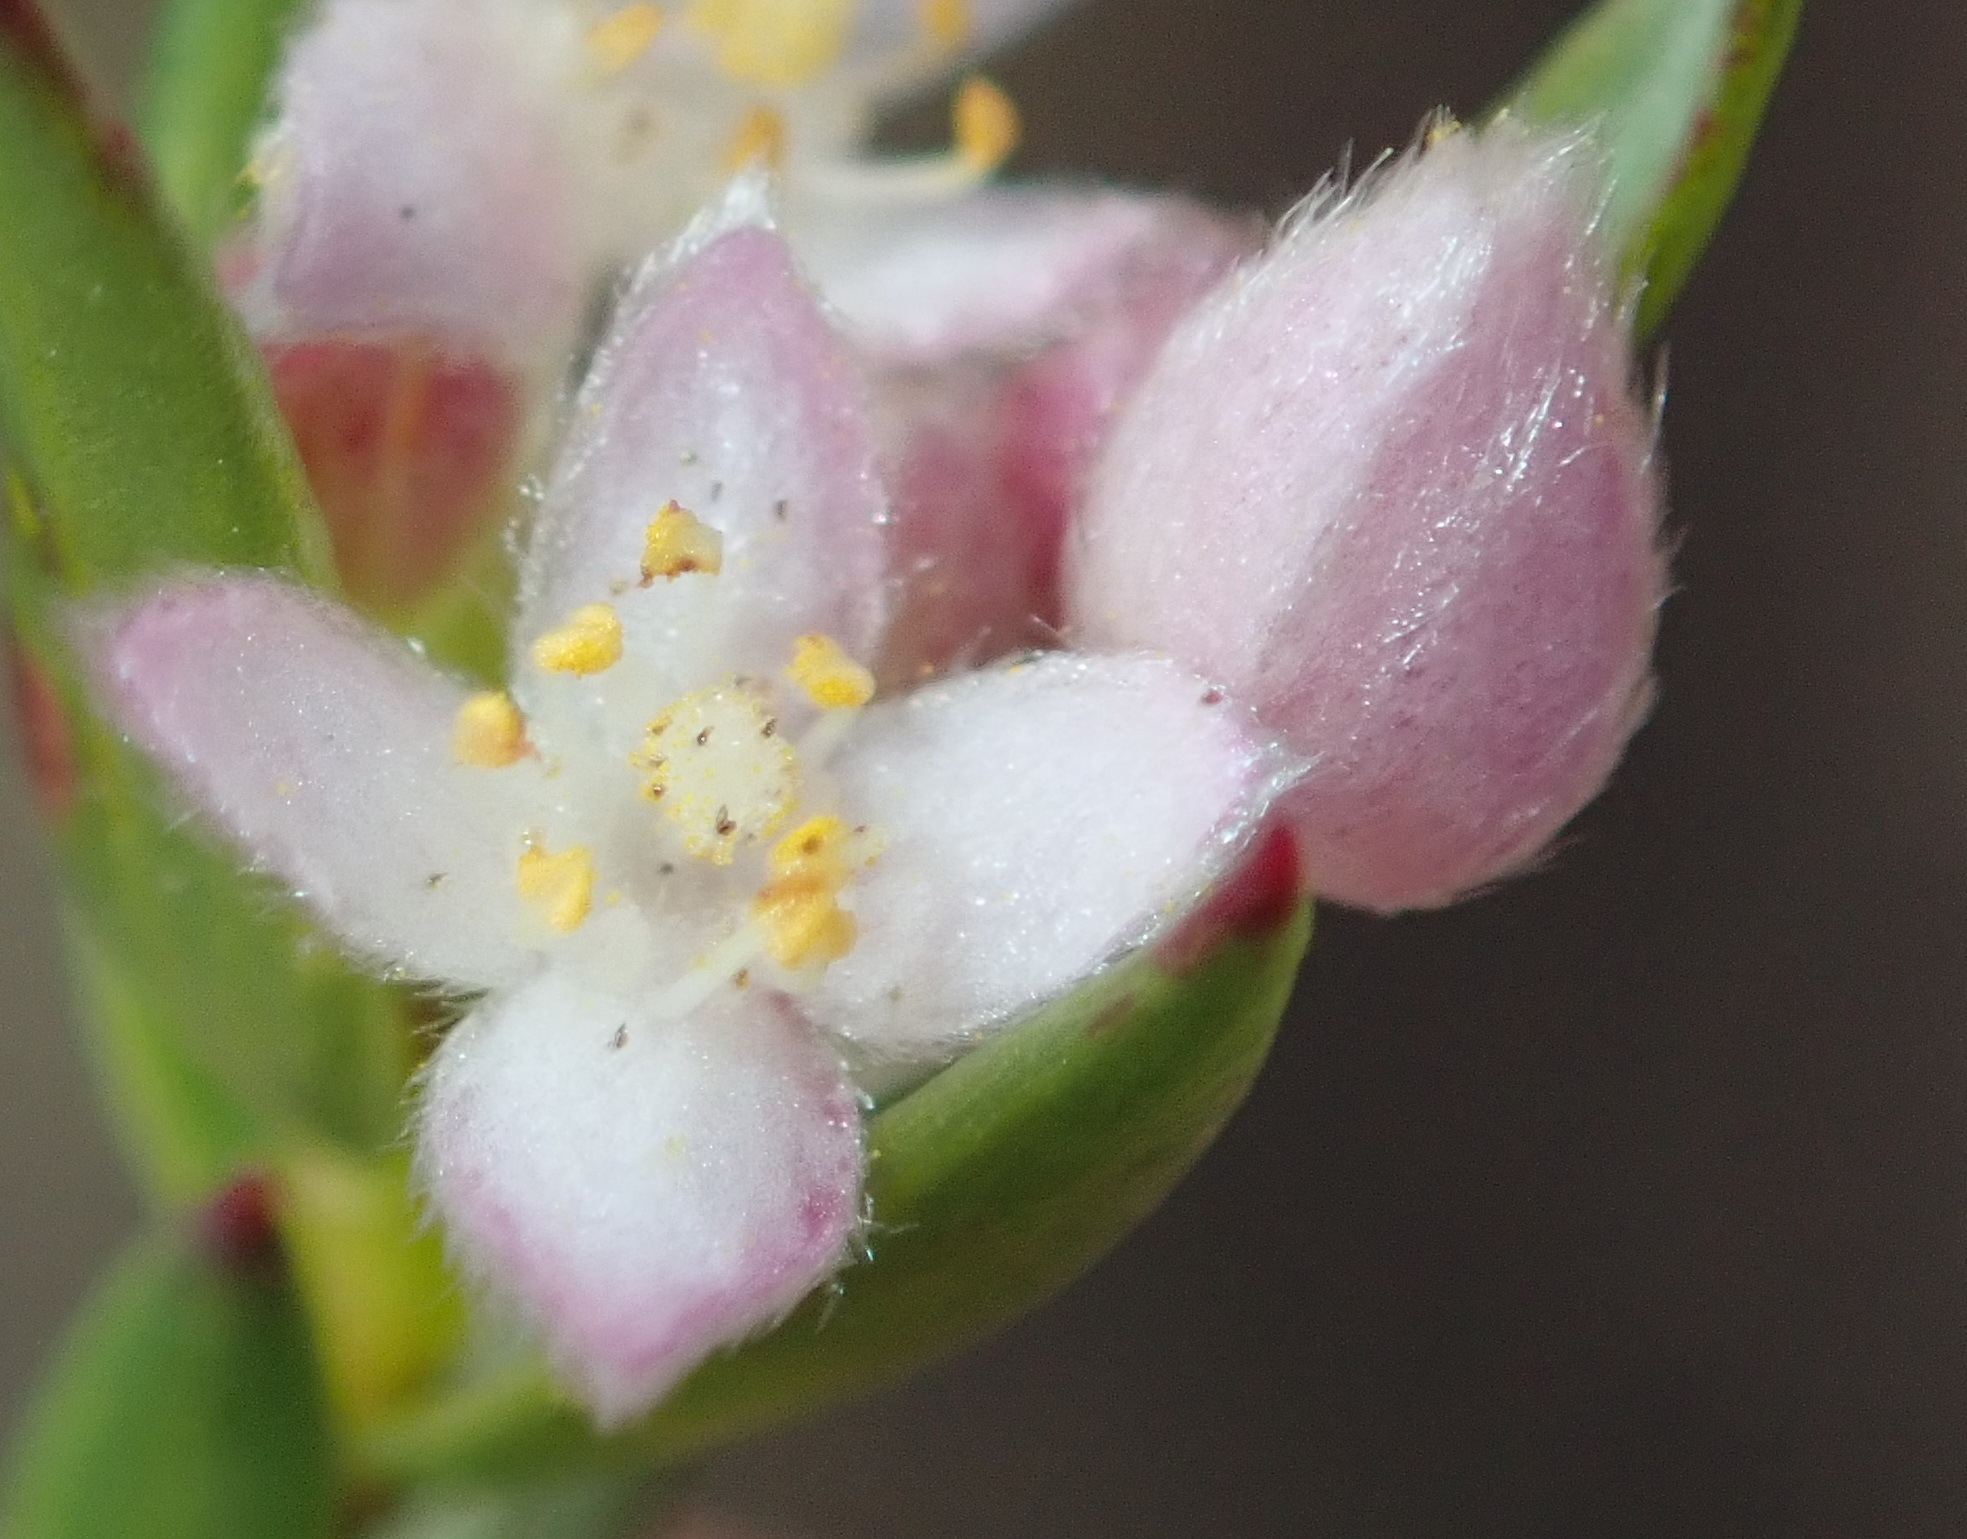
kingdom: Plantae
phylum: Tracheophyta
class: Magnoliopsida
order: Malvales
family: Thymelaeaceae
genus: Lachnaea
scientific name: Lachnaea burchellii
